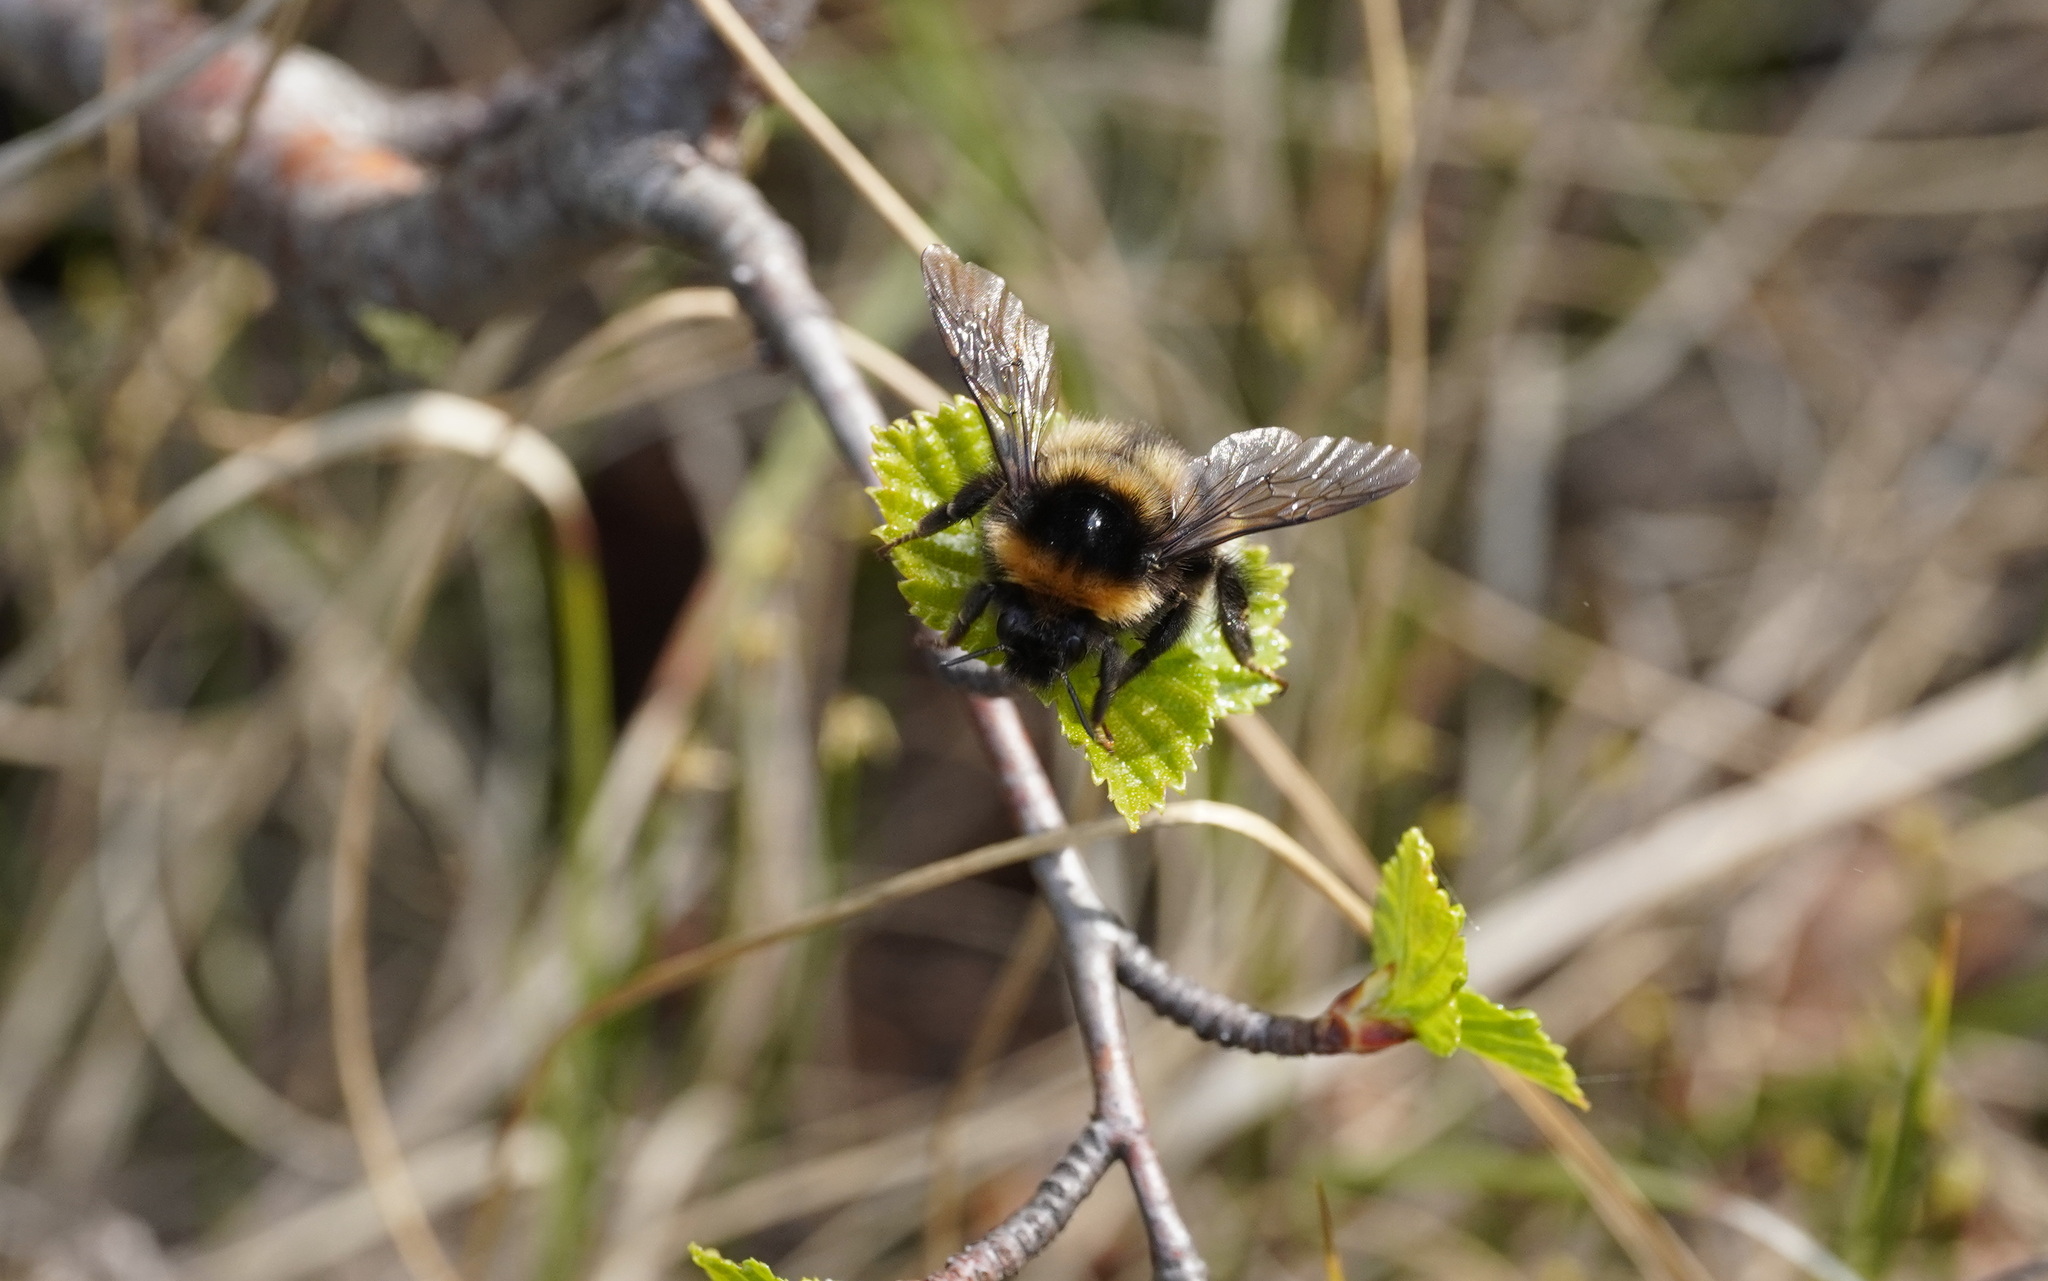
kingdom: Animalia
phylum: Arthropoda
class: Insecta
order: Hymenoptera
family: Apidae
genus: Bombus
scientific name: Bombus jonellus
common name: Heath humble-bee
